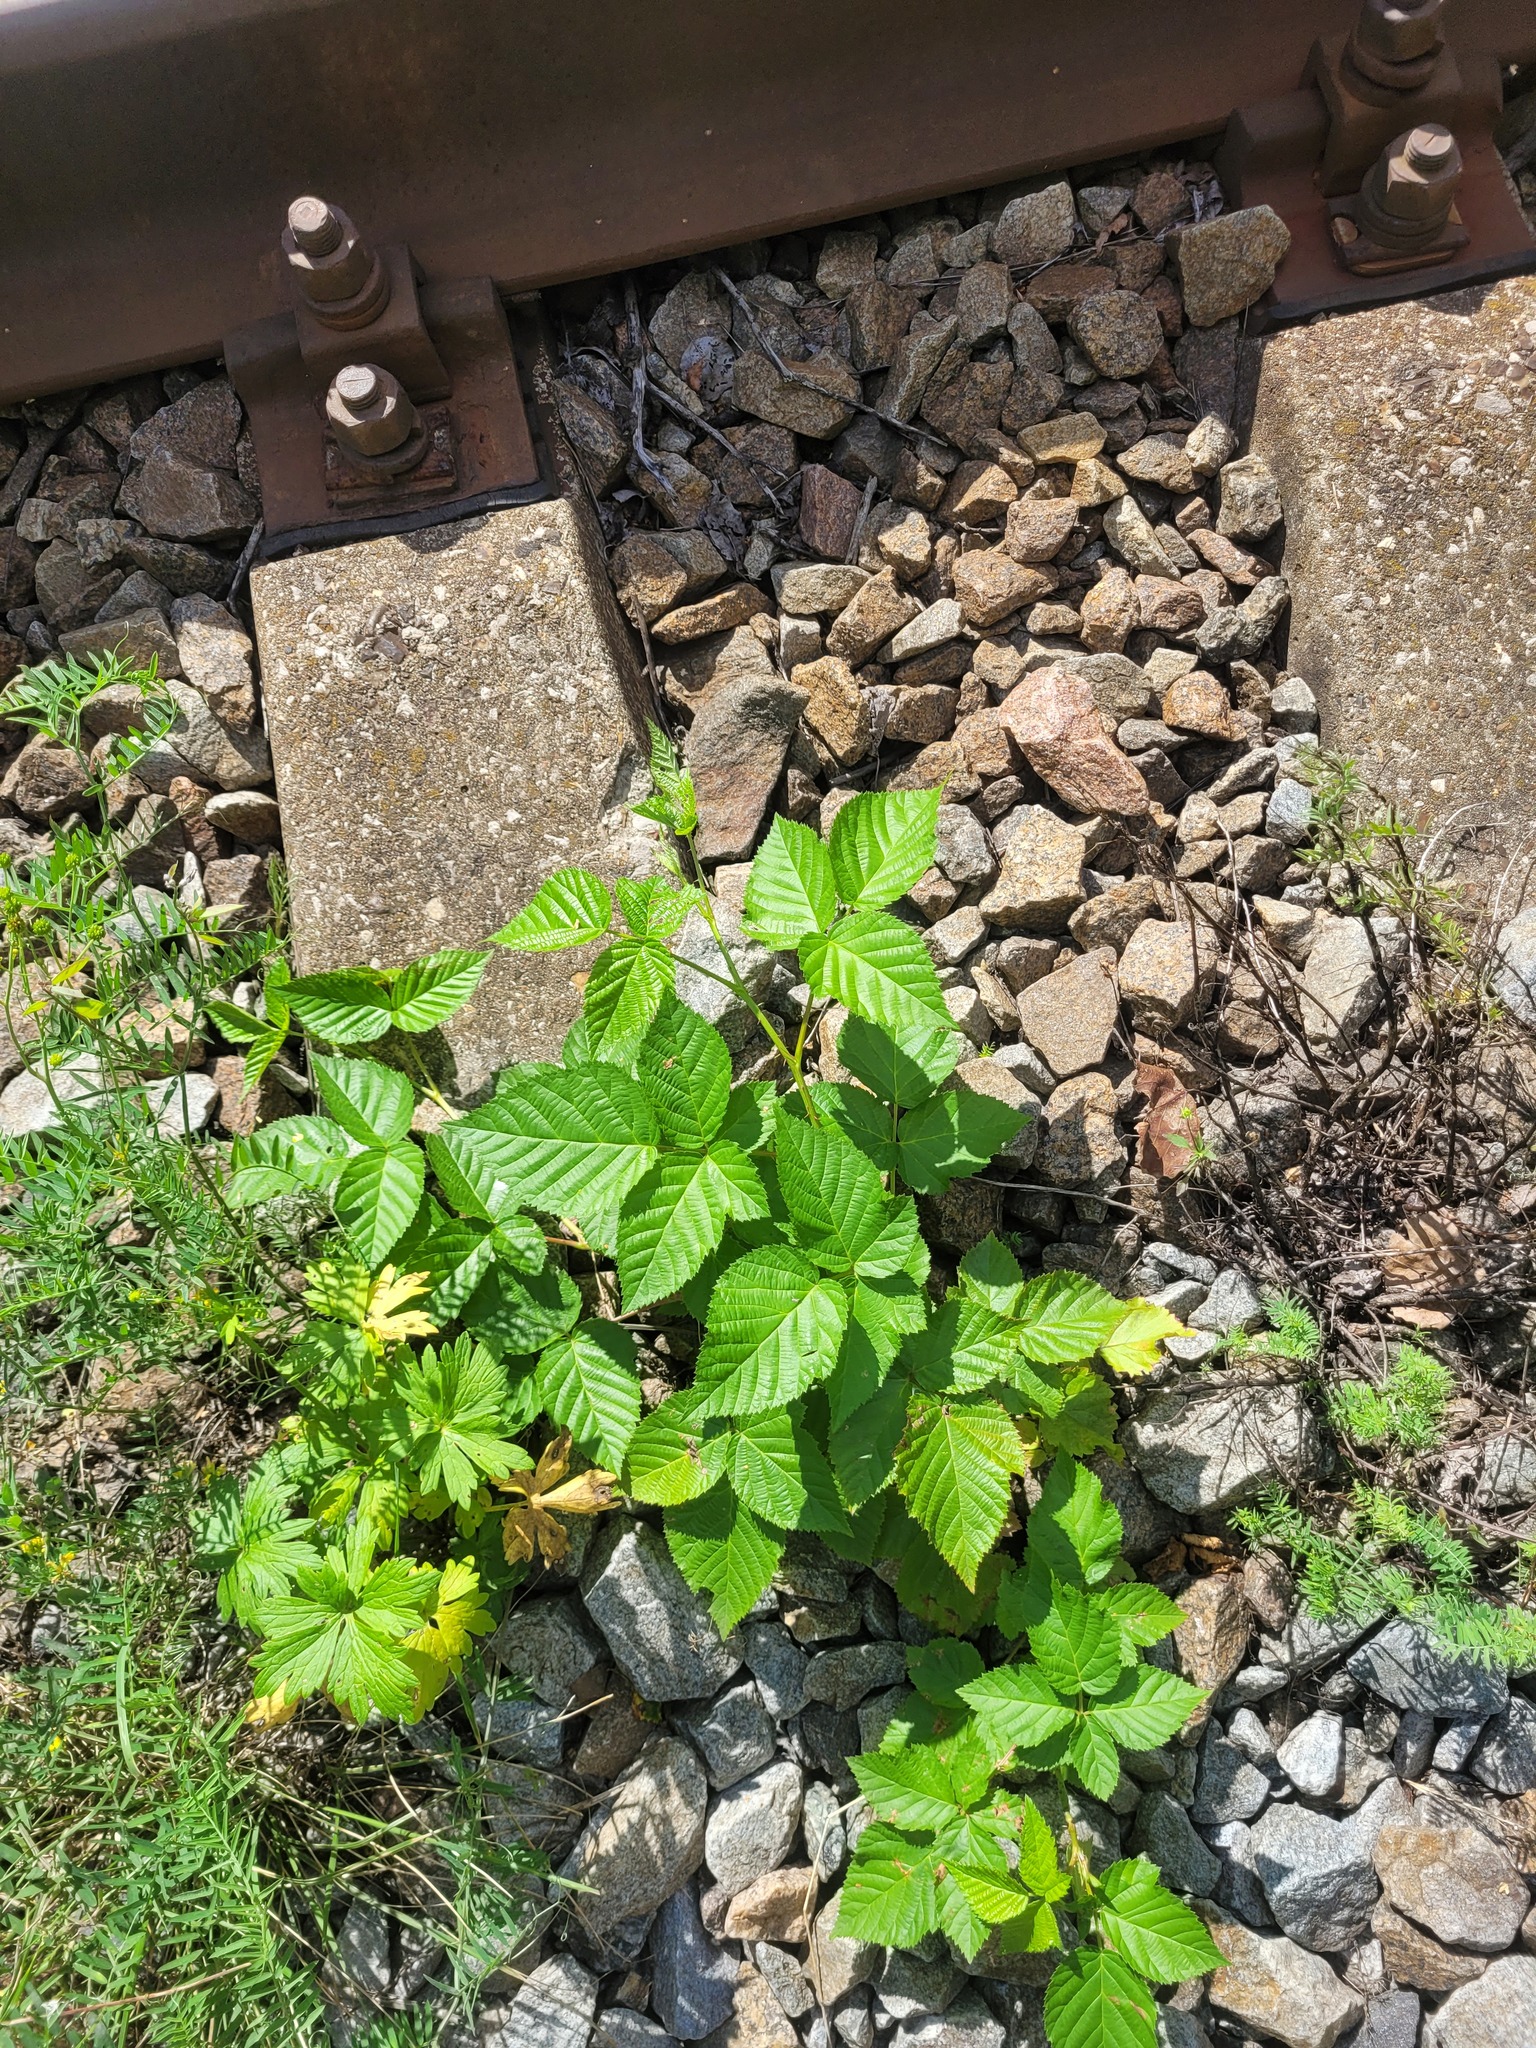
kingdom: Plantae
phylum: Tracheophyta
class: Magnoliopsida
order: Rosales
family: Rosaceae
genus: Rubus
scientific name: Rubus polonicus
